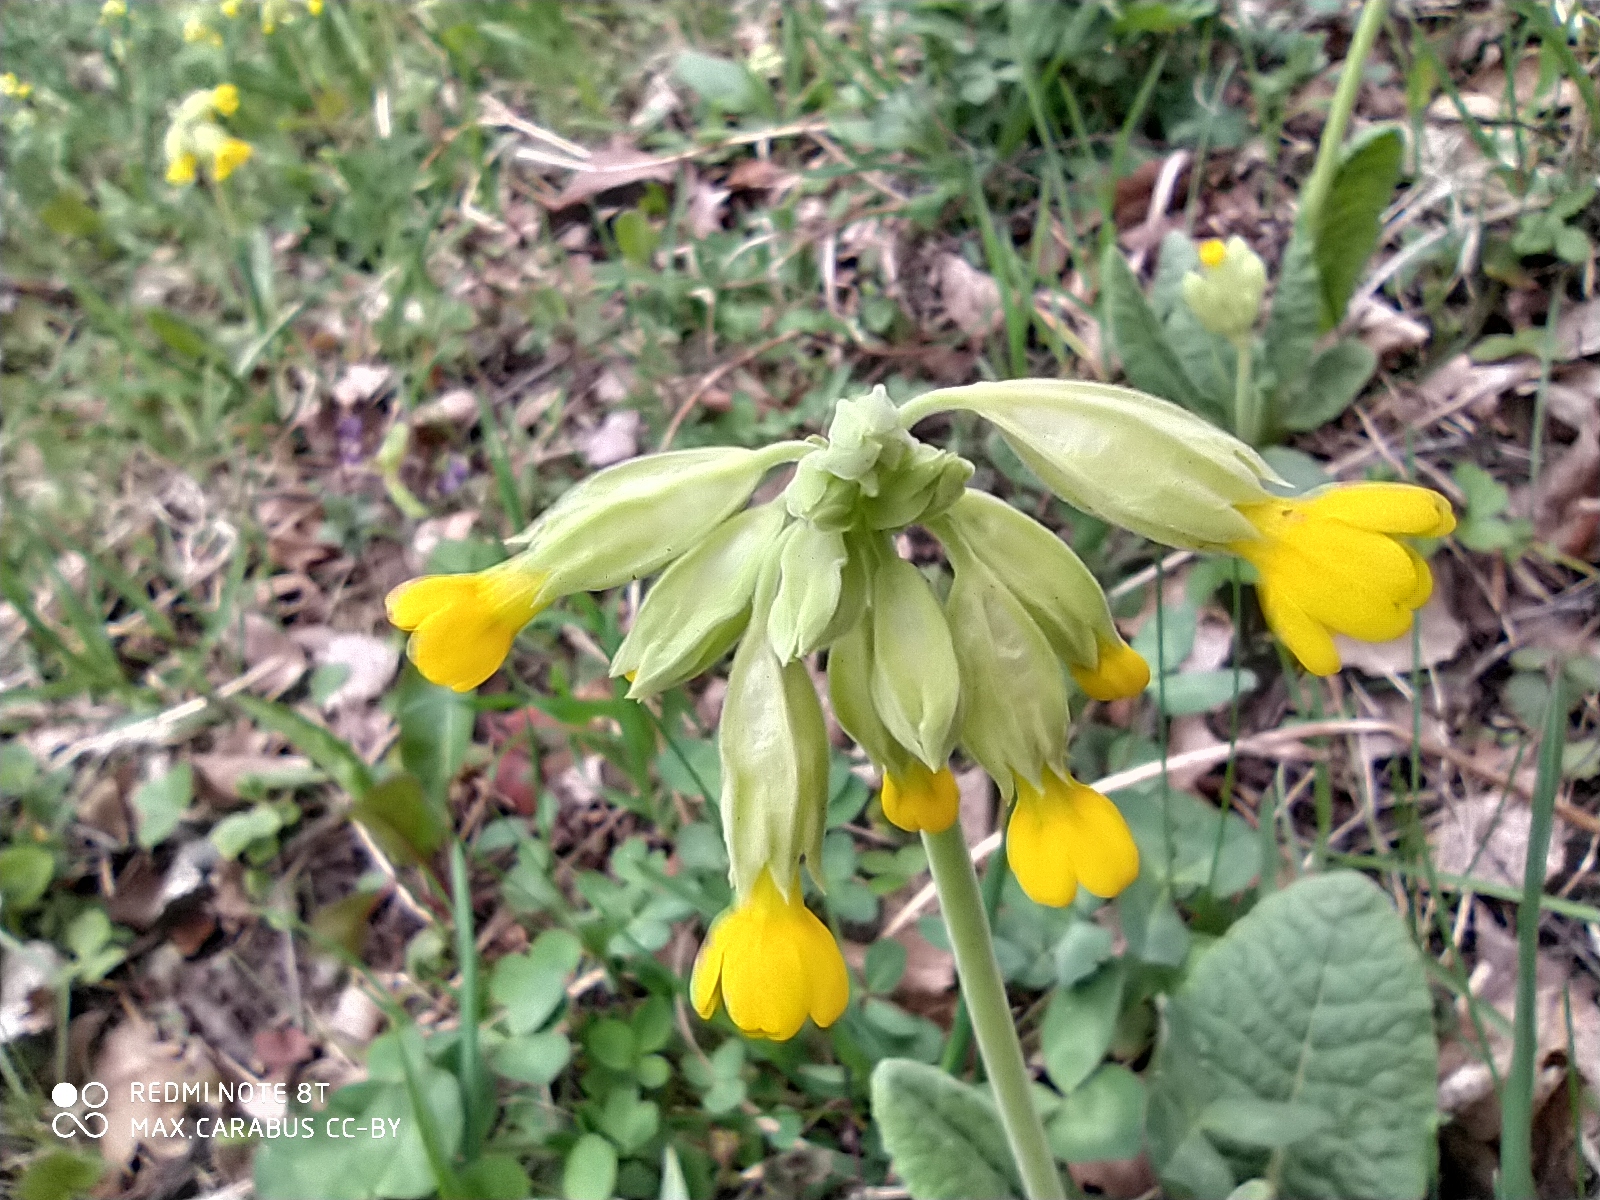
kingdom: Plantae
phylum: Tracheophyta
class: Magnoliopsida
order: Ericales
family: Primulaceae
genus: Primula
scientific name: Primula veris
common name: Cowslip
